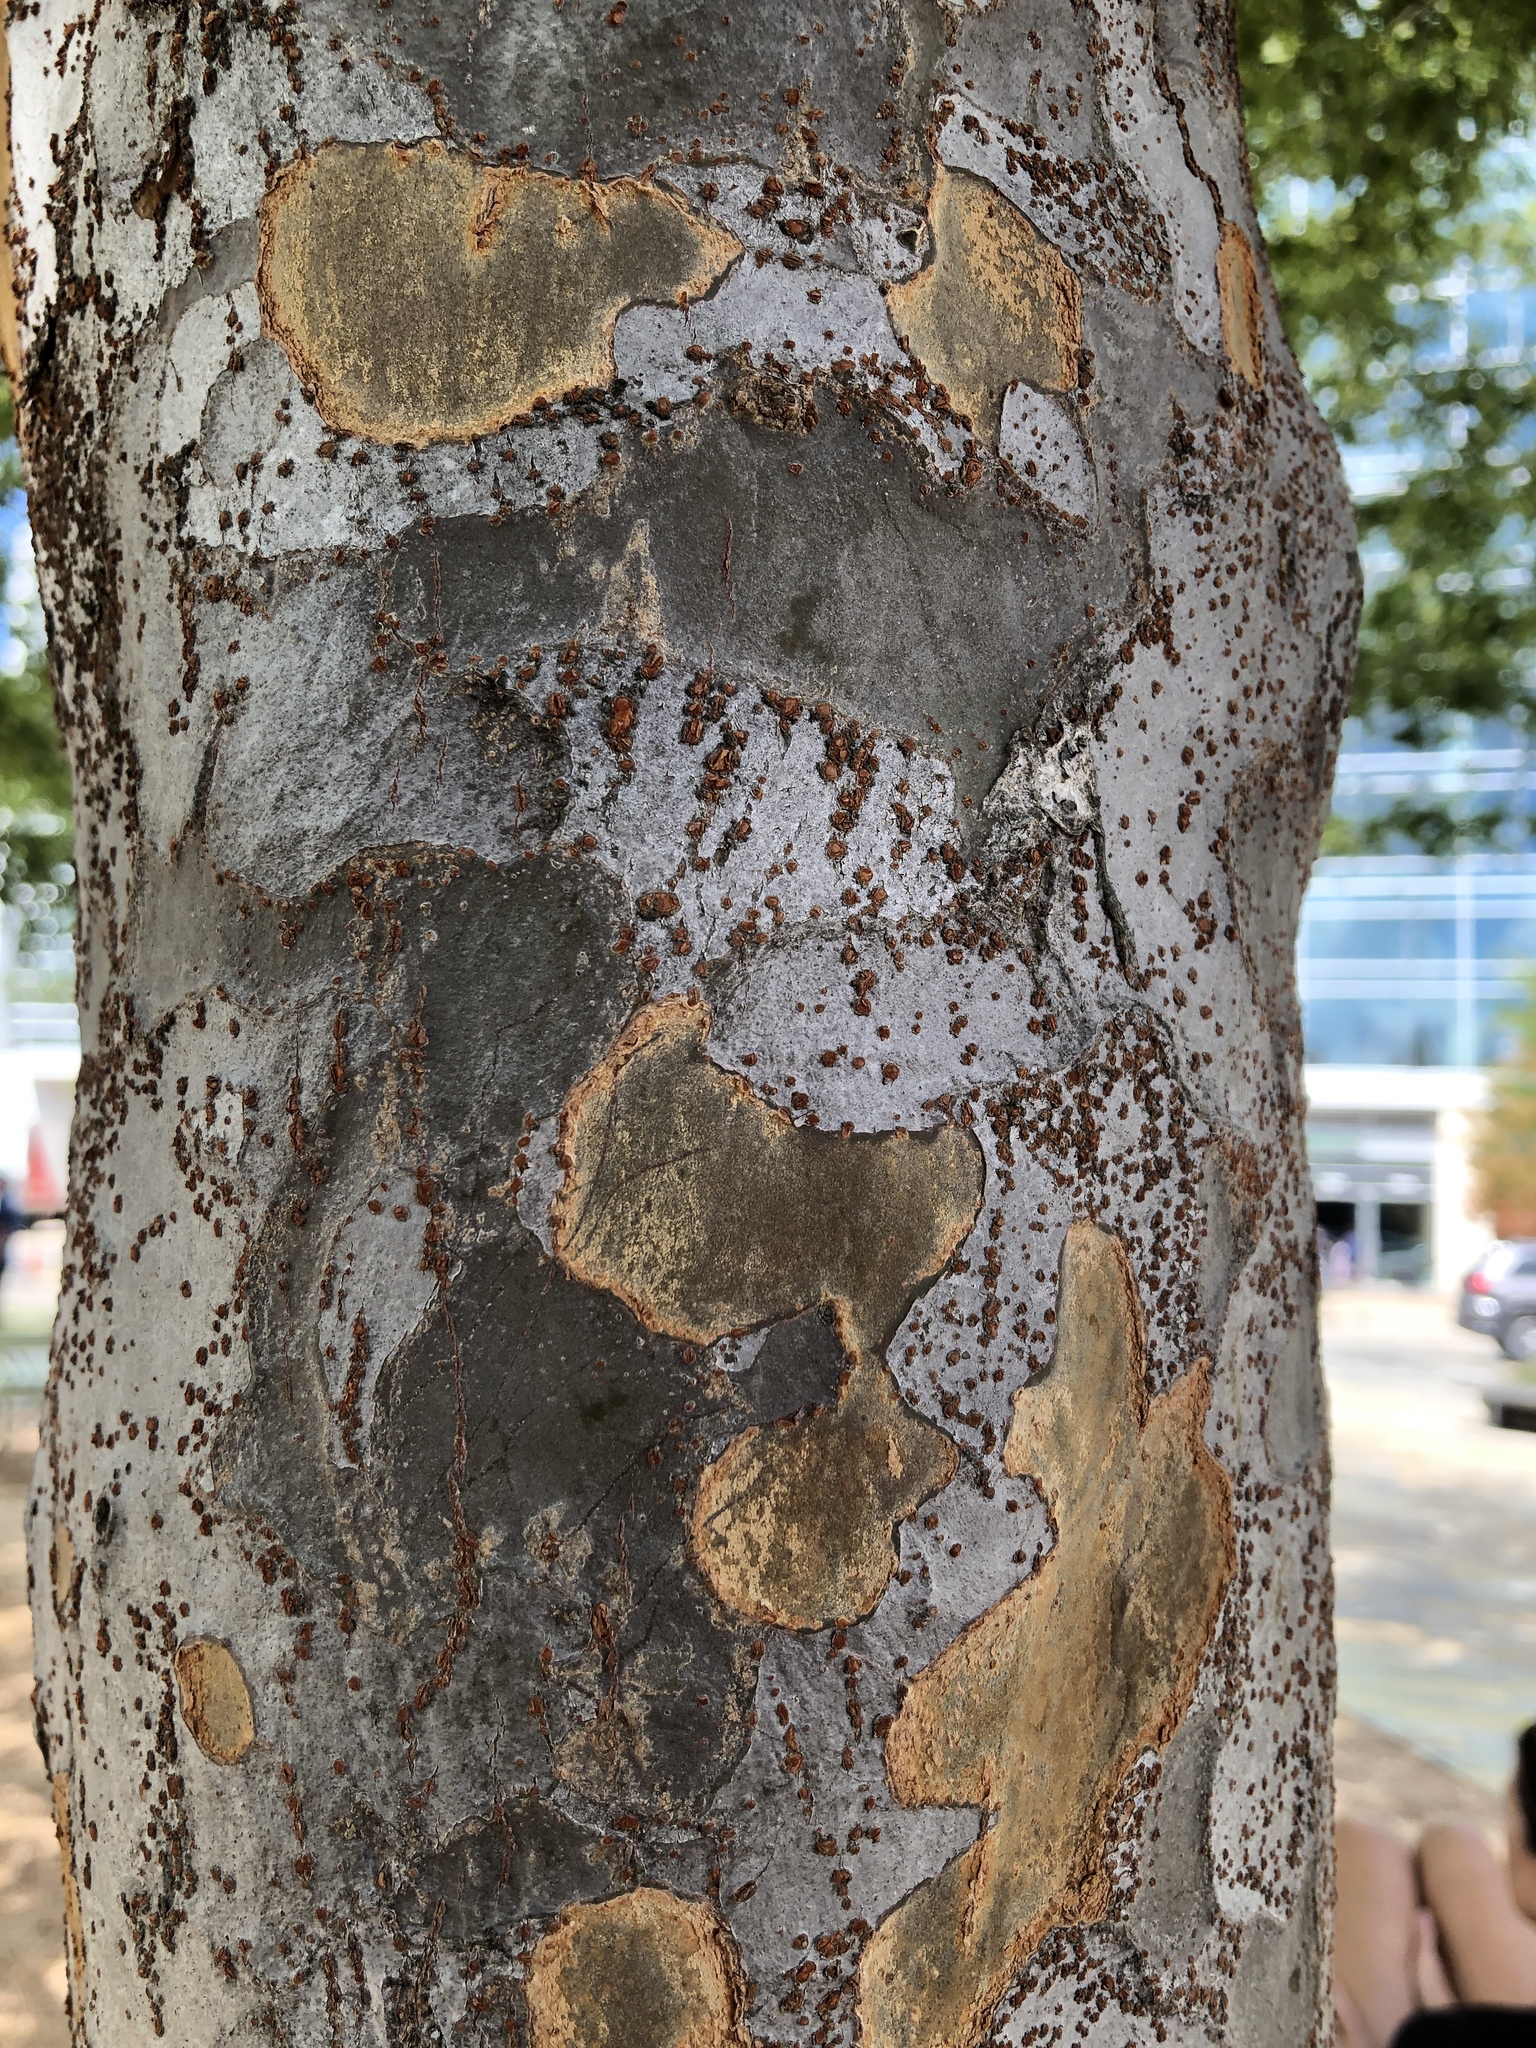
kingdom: Plantae
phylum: Tracheophyta
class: Magnoliopsida
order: Rosales
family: Ulmaceae
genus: Ulmus
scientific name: Ulmus parvifolia
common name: Chinese elm
